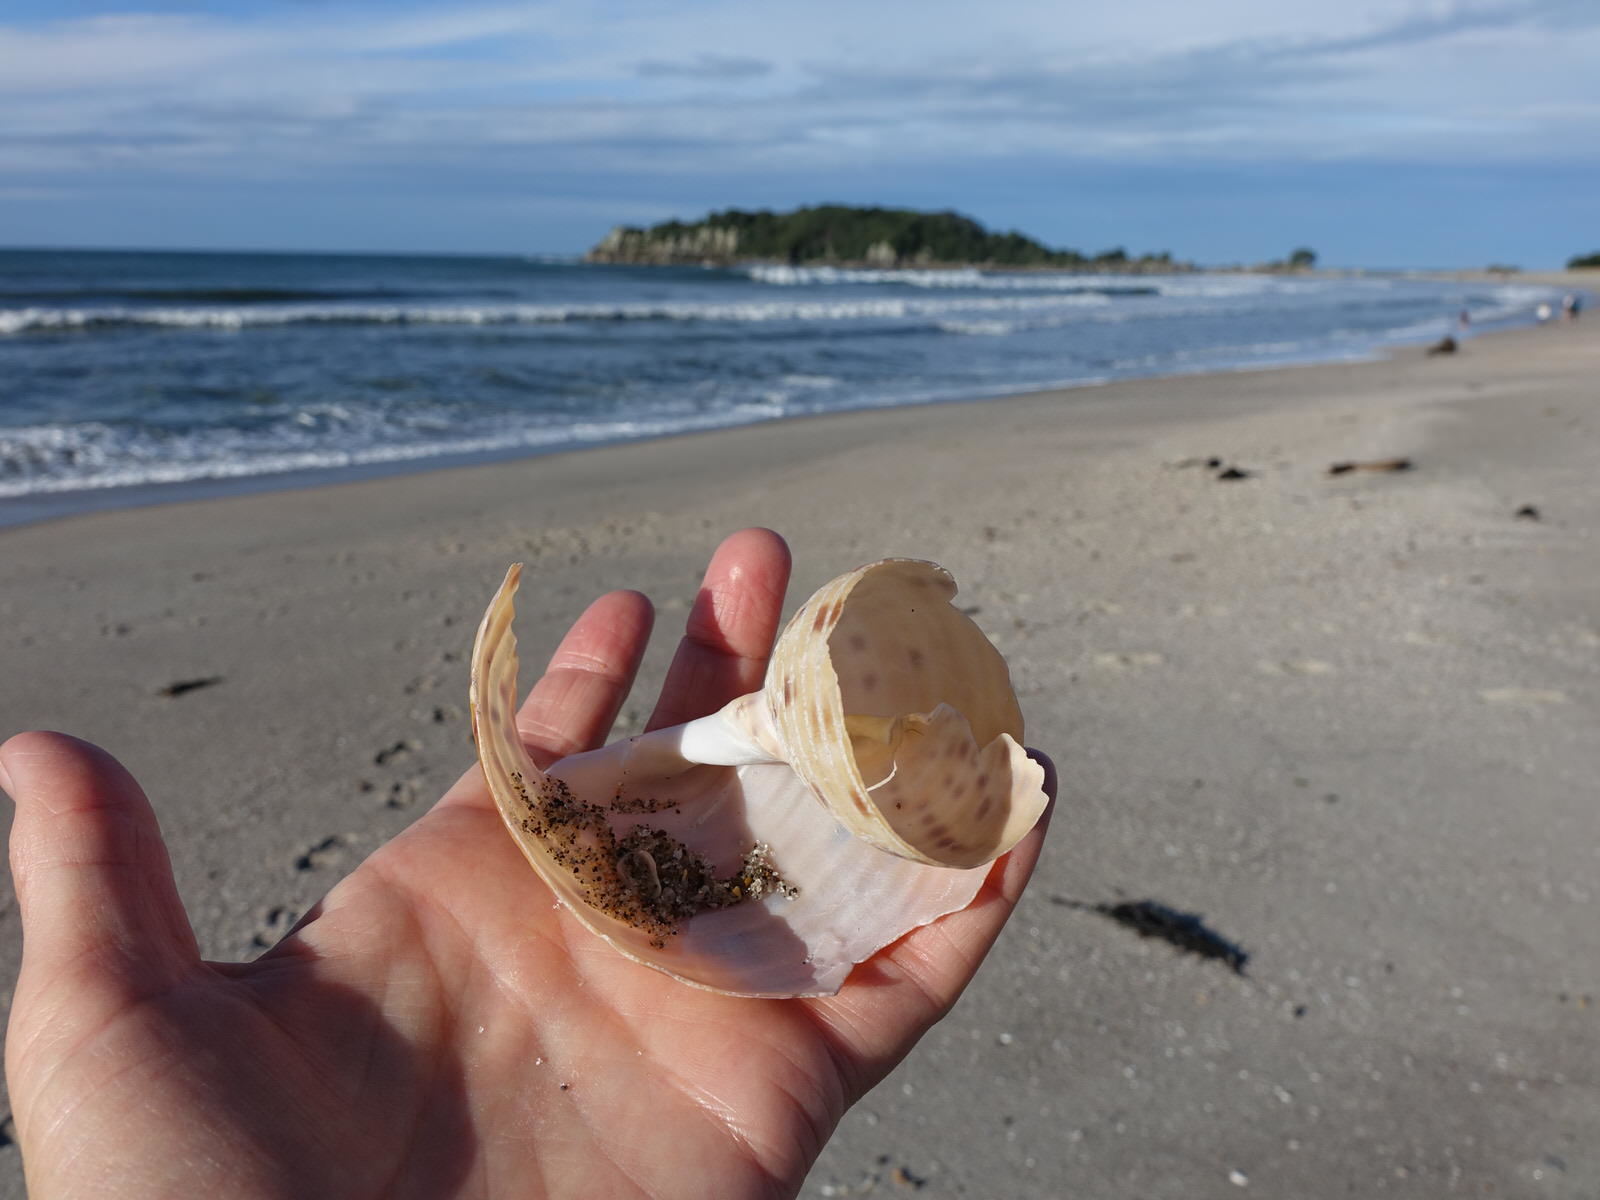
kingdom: Animalia
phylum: Mollusca
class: Gastropoda
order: Littorinimorpha
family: Tonnidae
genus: Tonna
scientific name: Tonna tankervillii
